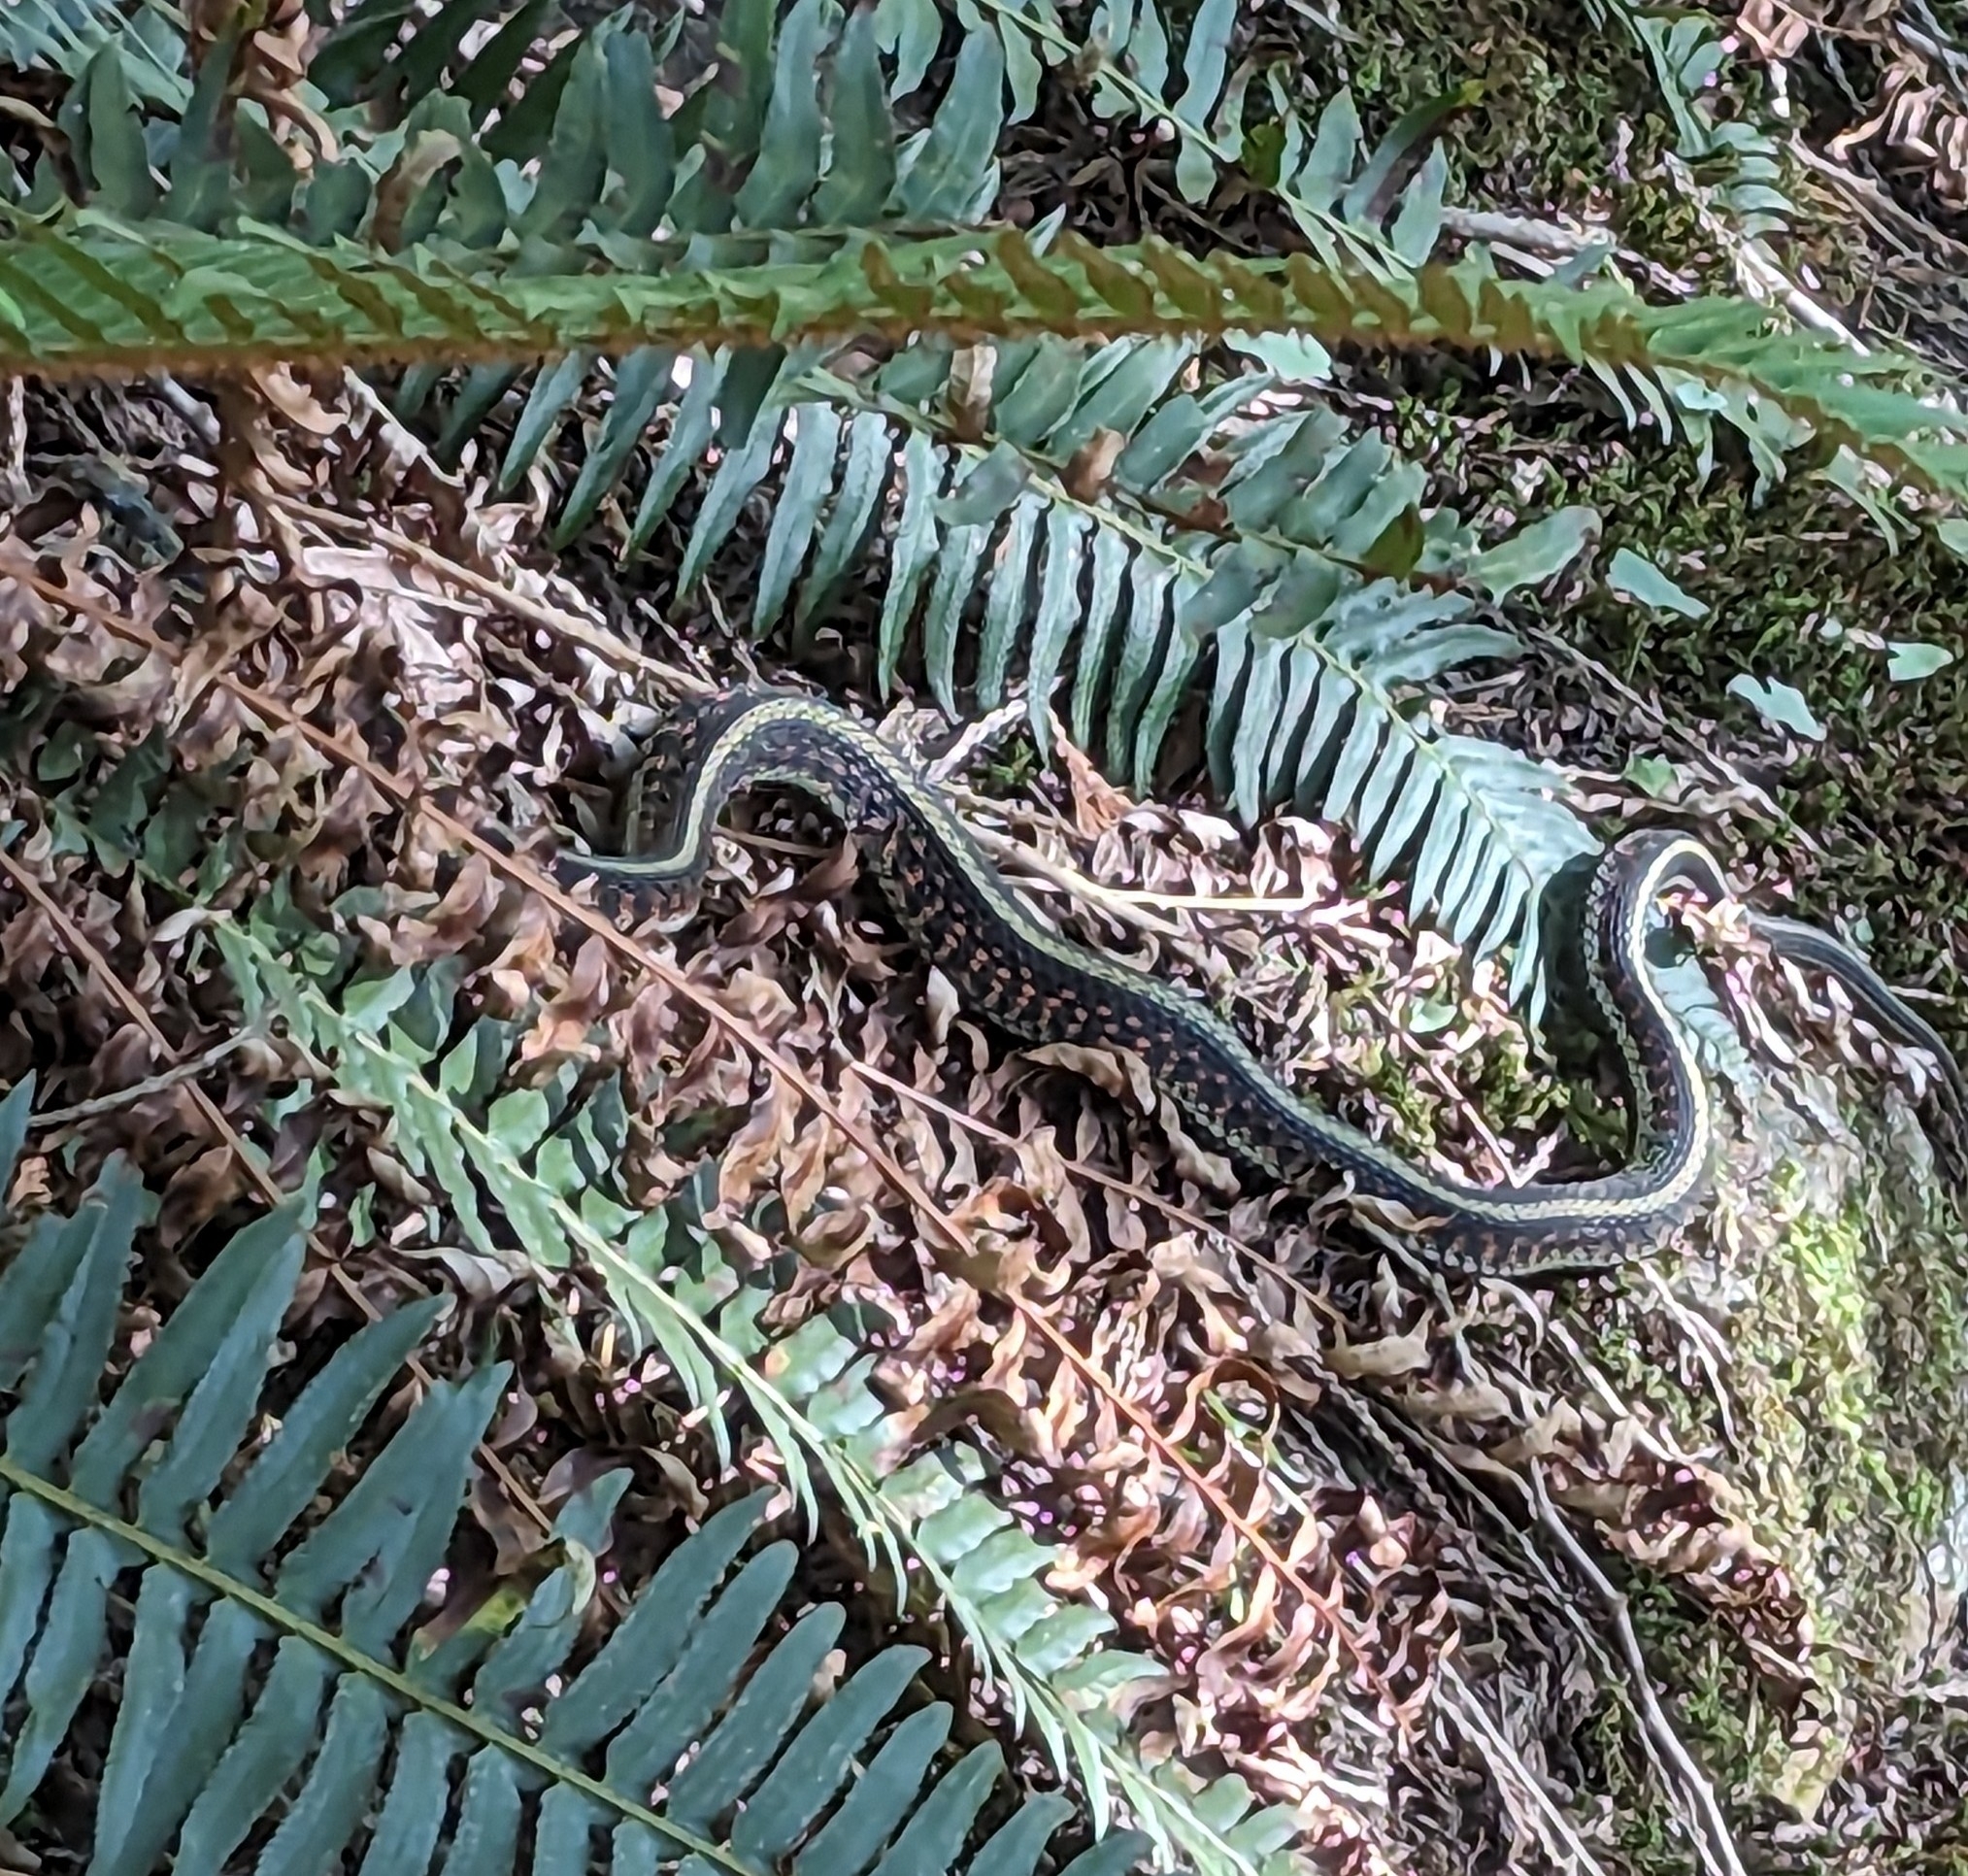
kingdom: Animalia
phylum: Chordata
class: Squamata
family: Colubridae
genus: Thamnophis
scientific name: Thamnophis sirtalis
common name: Common garter snake
